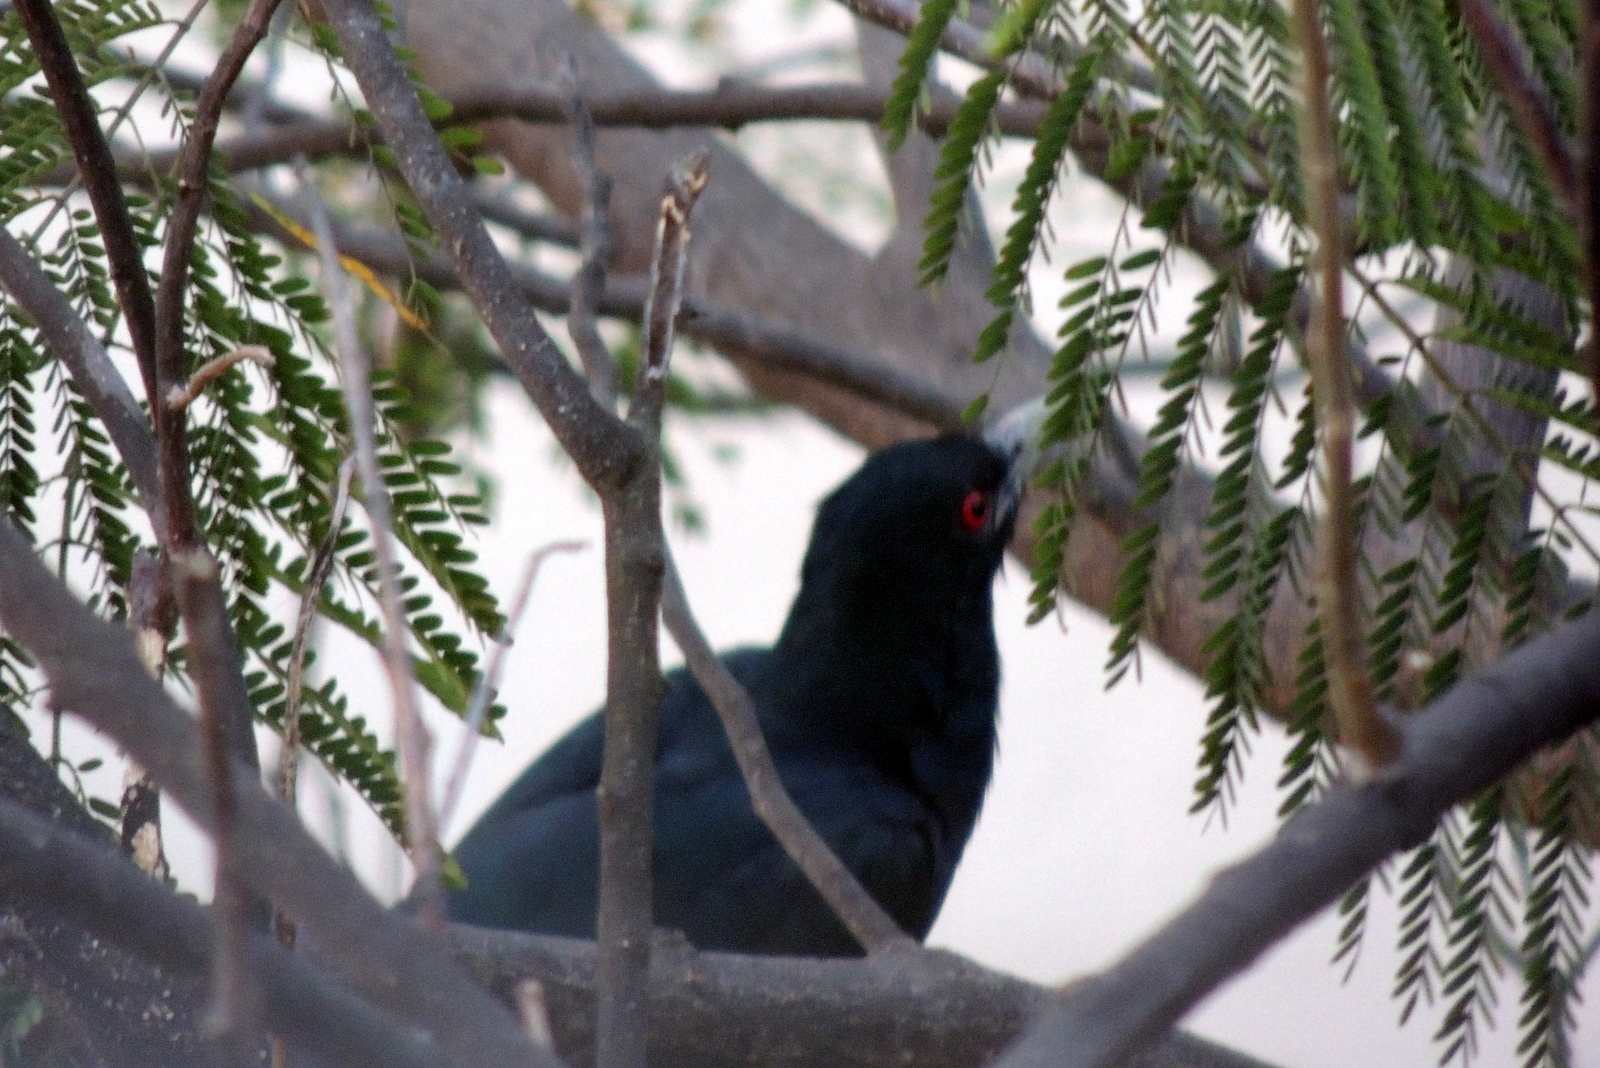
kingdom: Animalia
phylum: Chordata
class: Aves
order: Cuculiformes
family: Cuculidae
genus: Eudynamys
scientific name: Eudynamys scolopaceus
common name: Asian koel
